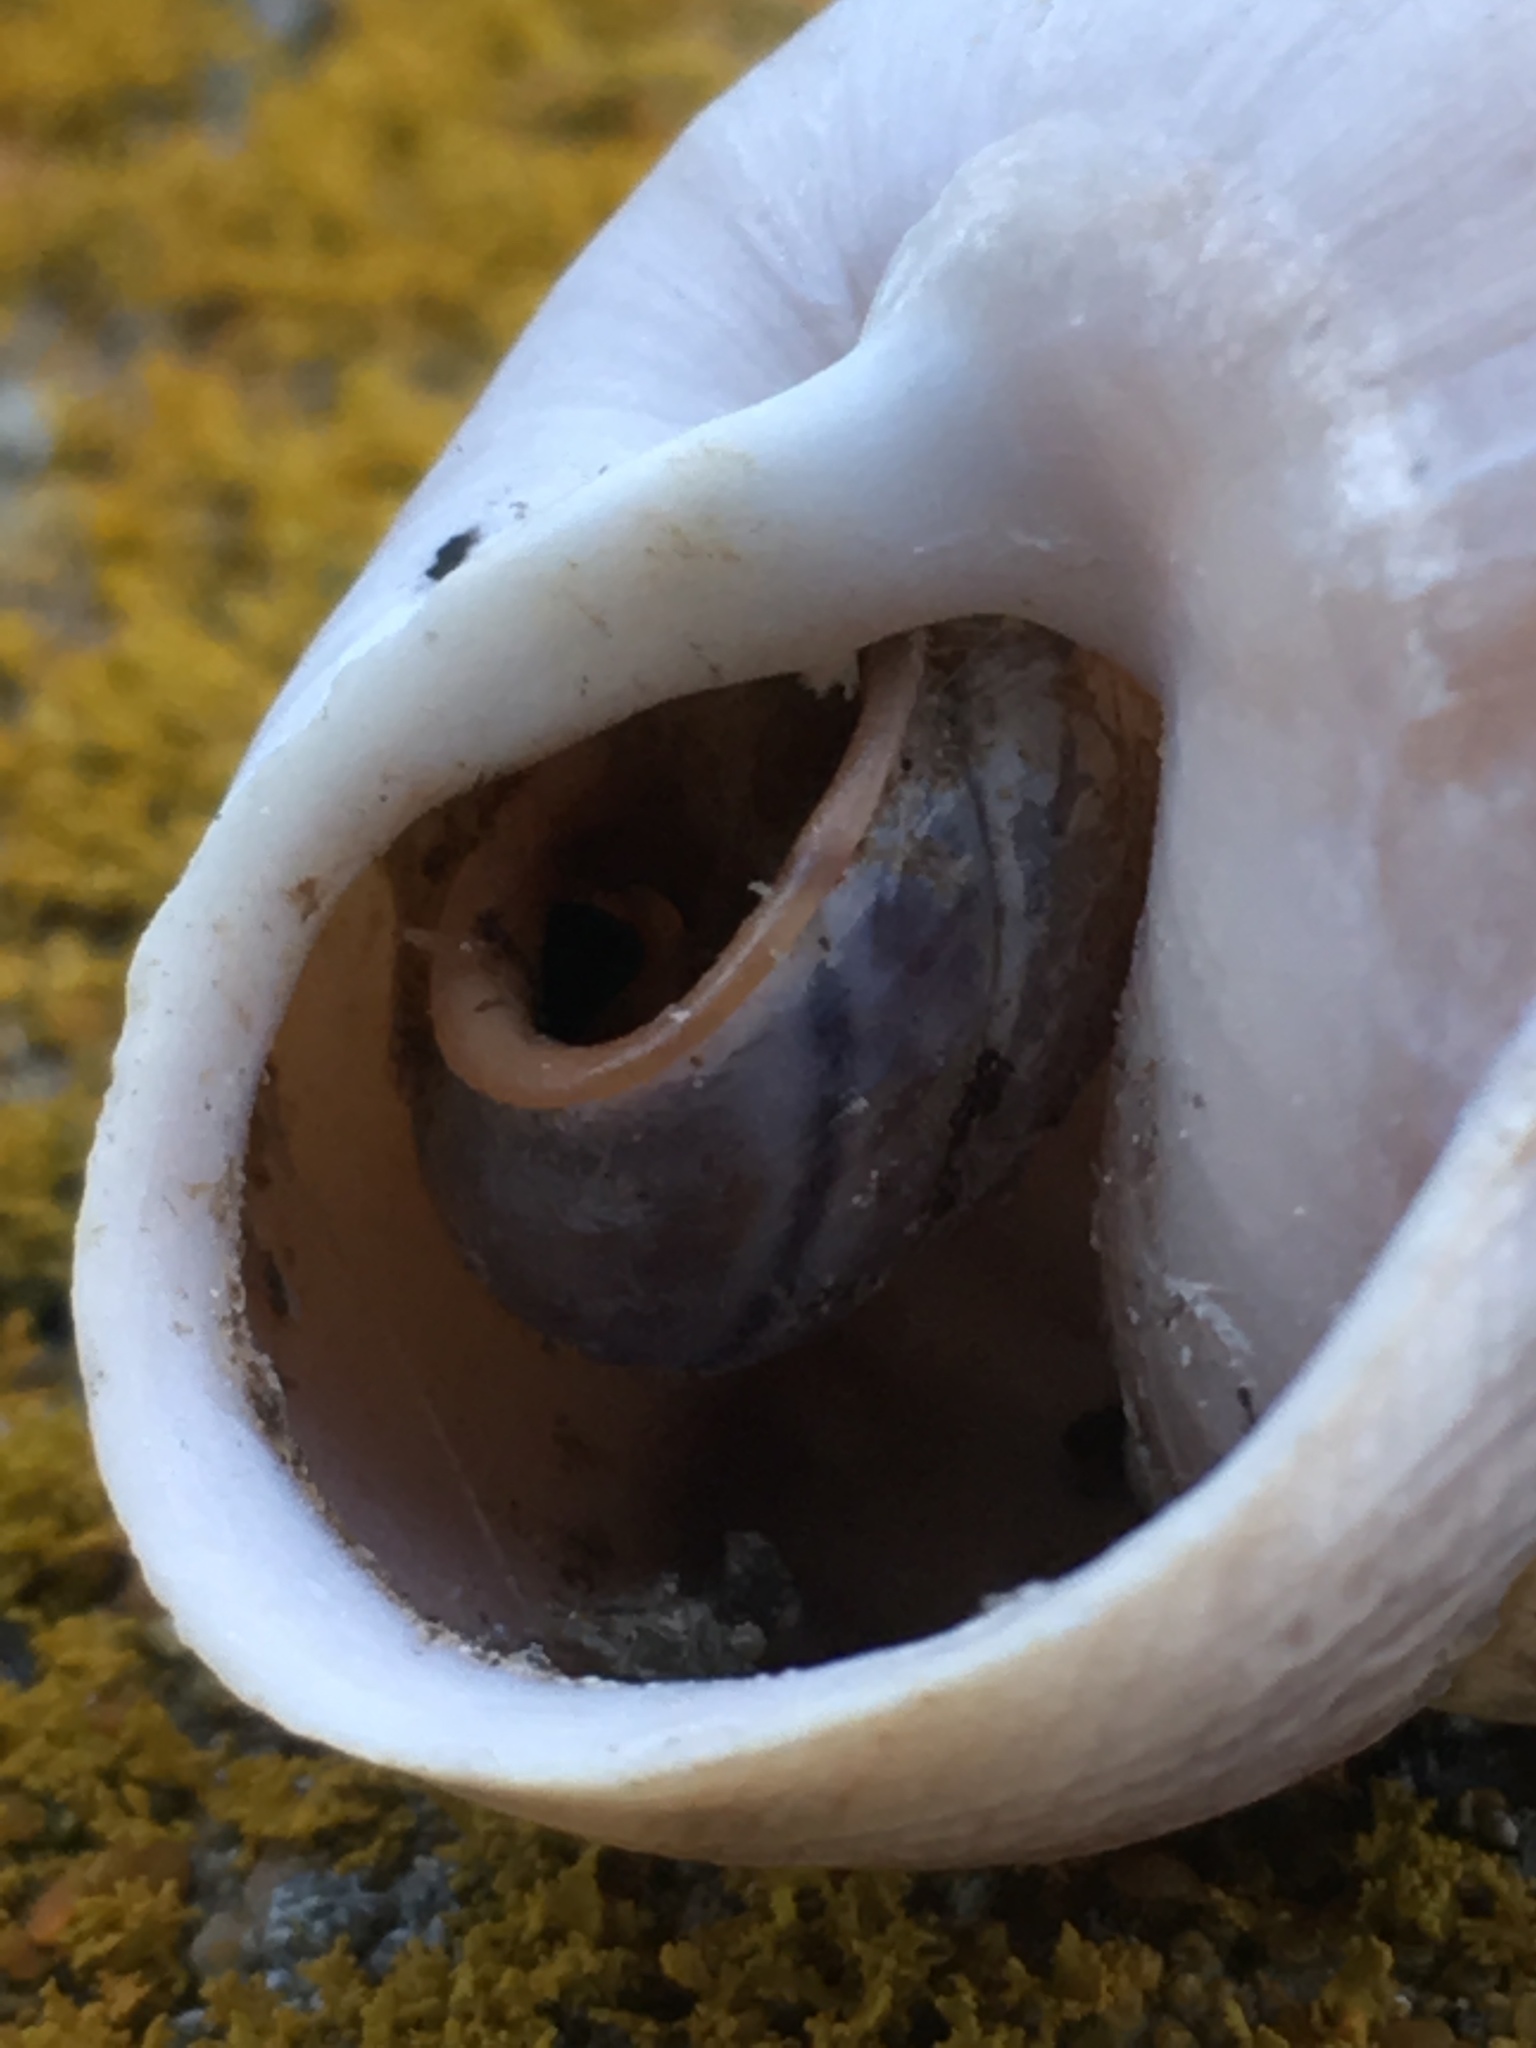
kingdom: Animalia
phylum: Mollusca
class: Gastropoda
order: Stylommatophora
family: Xanthonychidae
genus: Micrarionta
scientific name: Micrarionta facta
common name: Concentrated snail
